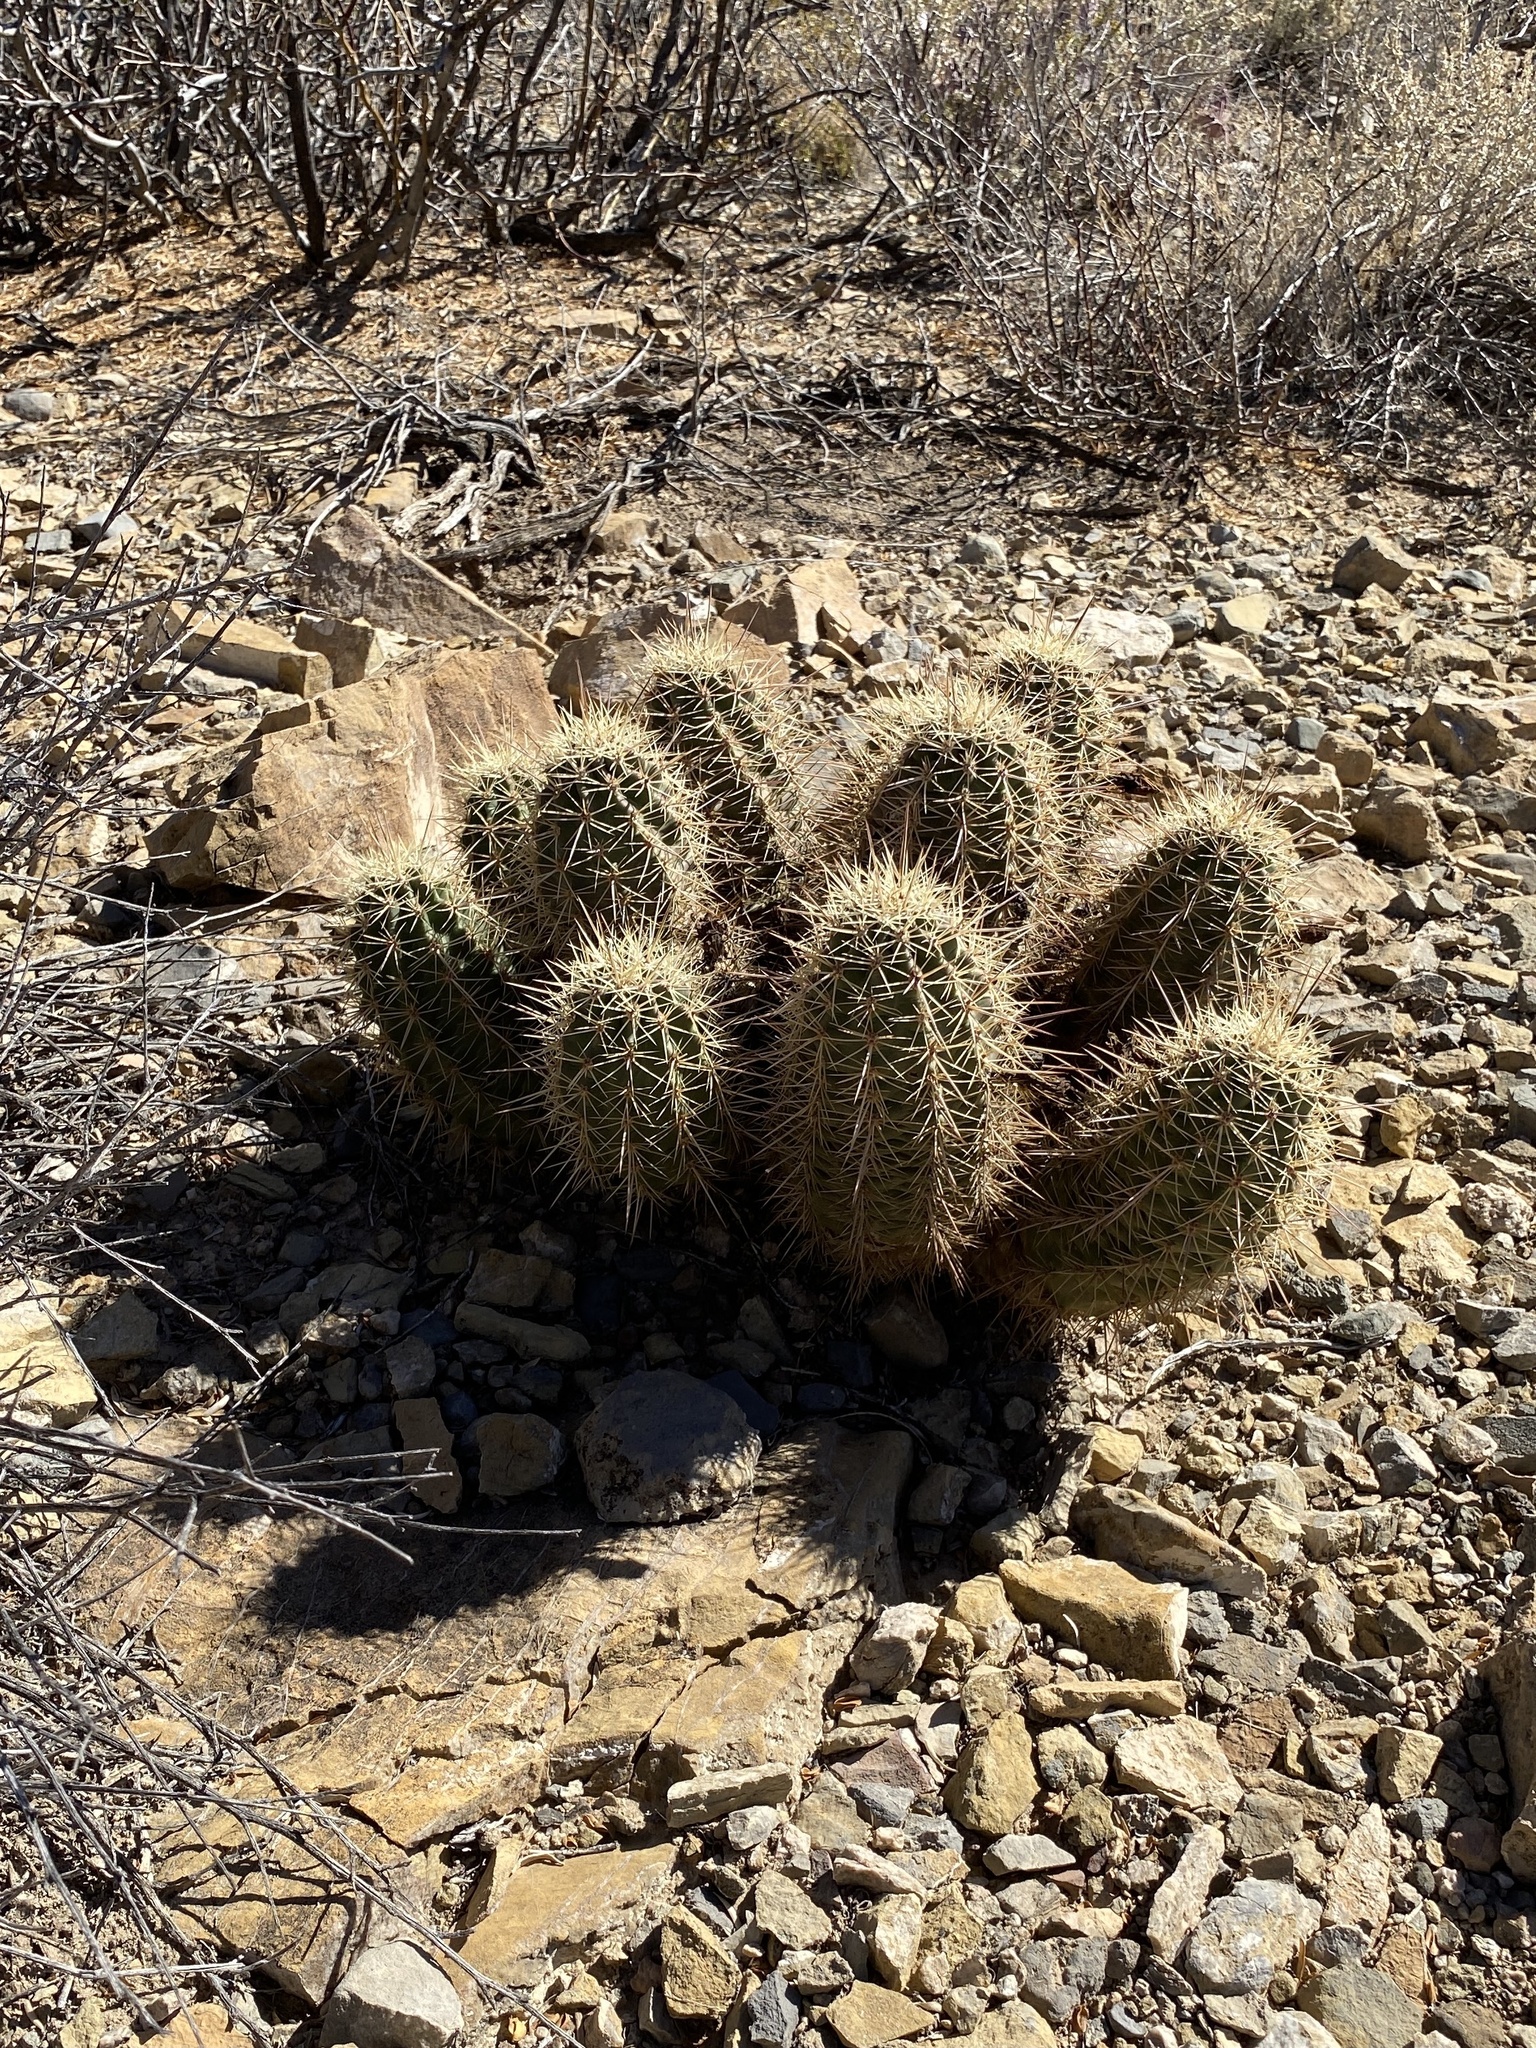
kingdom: Plantae
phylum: Tracheophyta
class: Magnoliopsida
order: Caryophyllales
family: Cactaceae
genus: Echinocereus
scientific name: Echinocereus coccineus
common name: Scarlet hedgehog cactus
